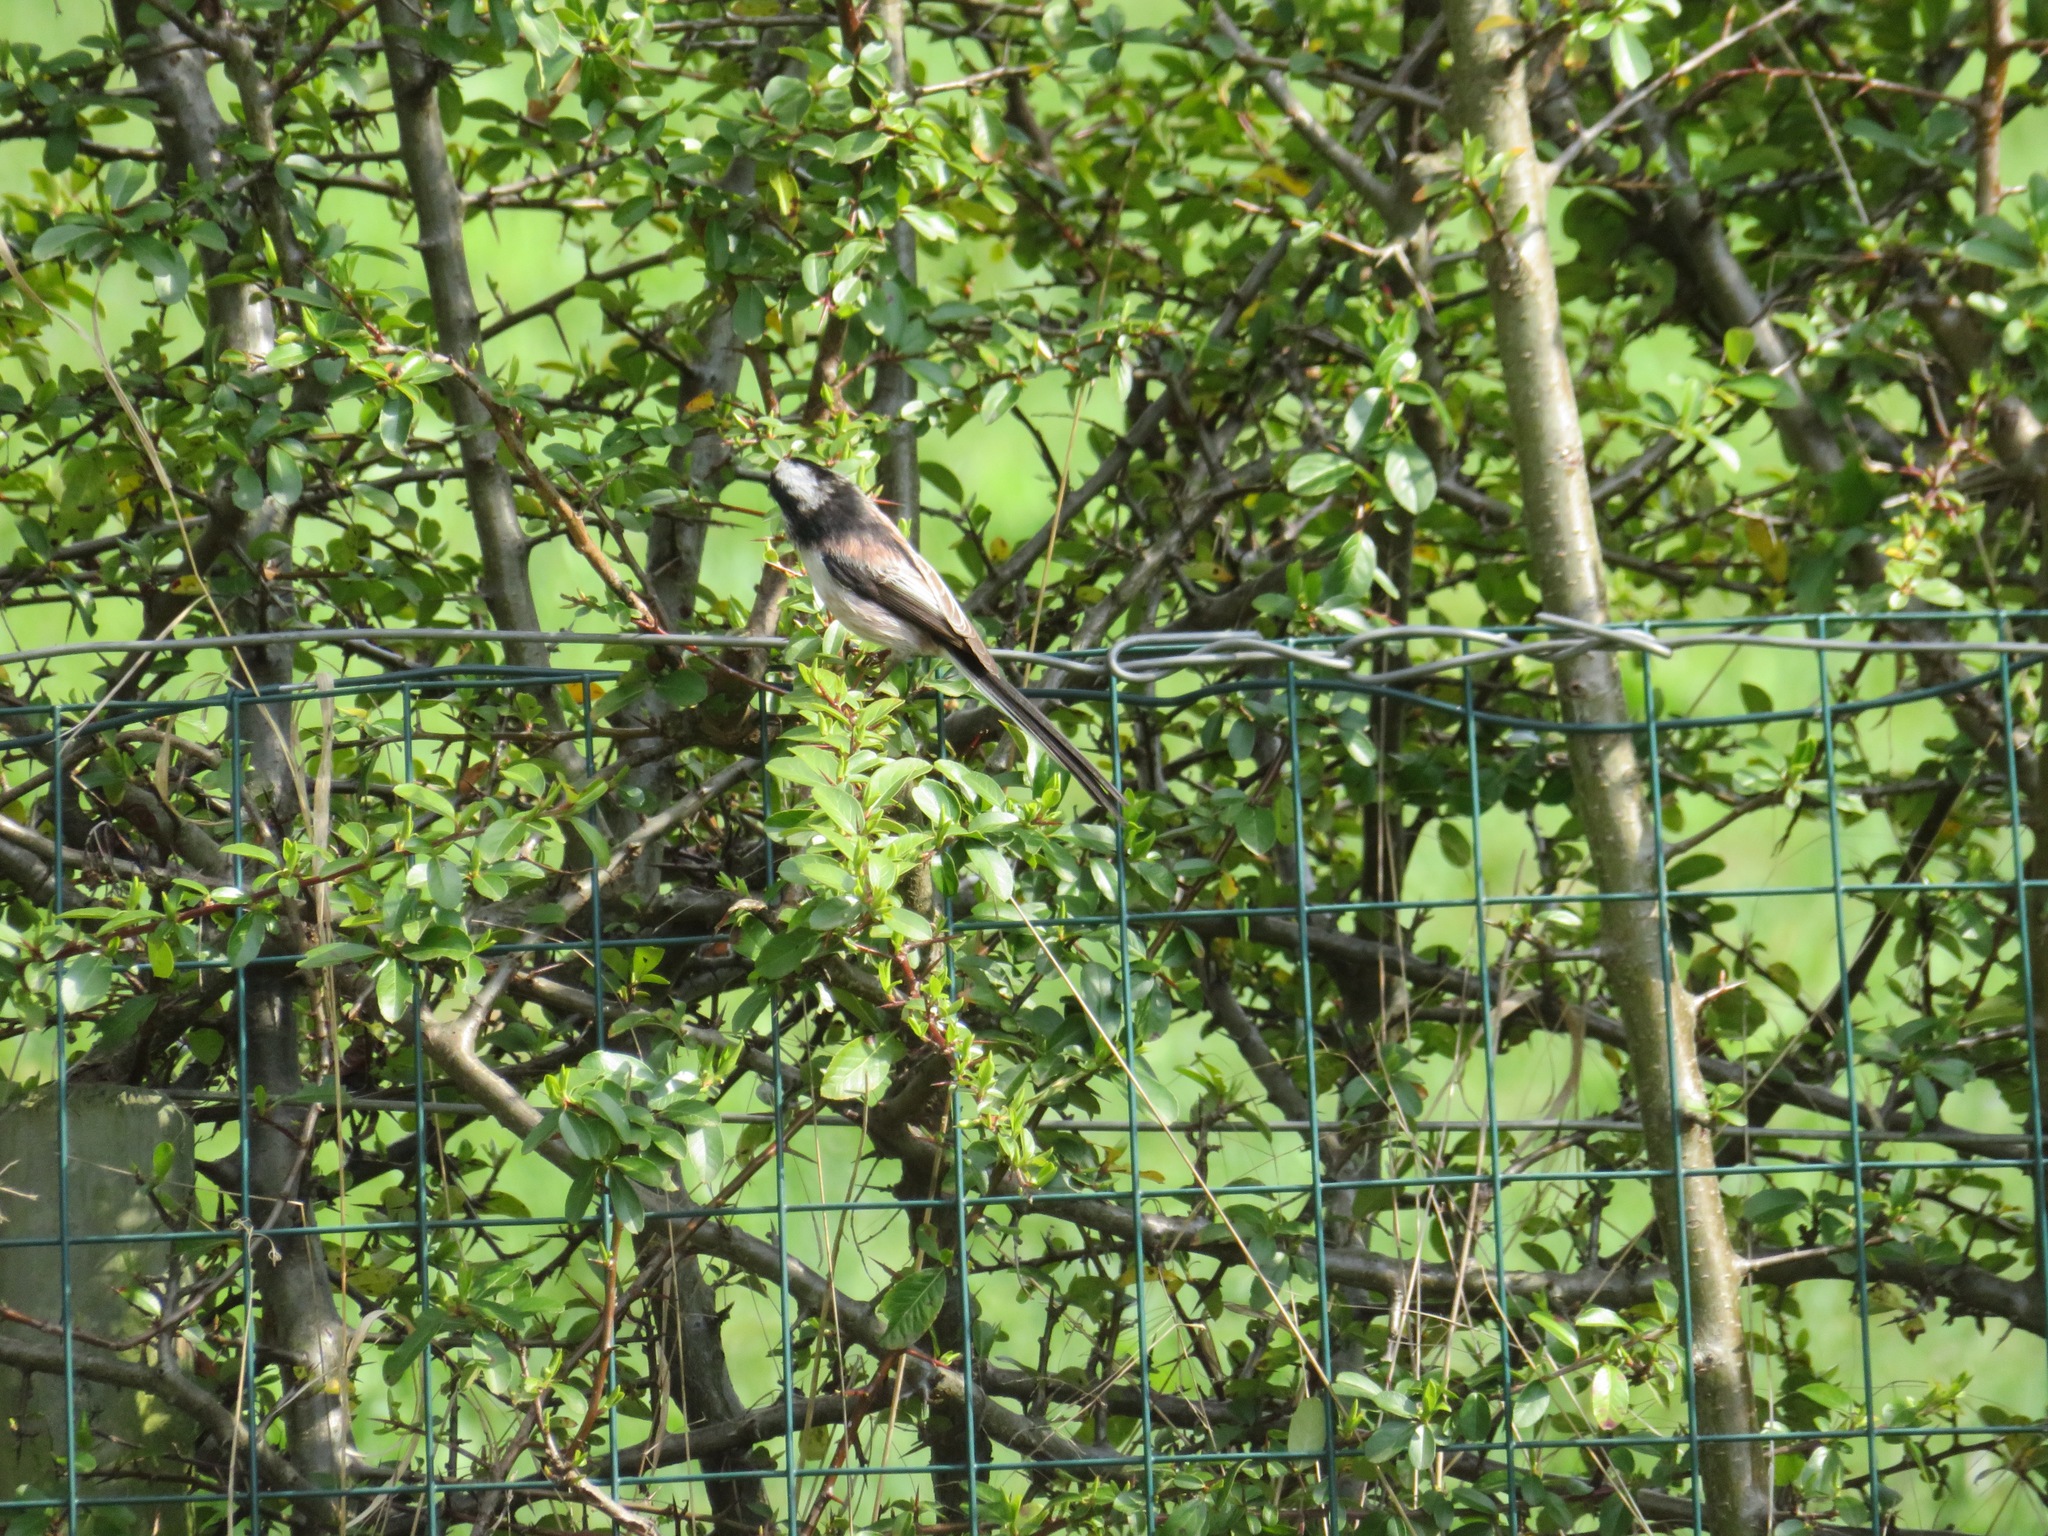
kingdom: Animalia
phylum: Chordata
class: Aves
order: Passeriformes
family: Aegithalidae
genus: Aegithalos
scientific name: Aegithalos caudatus
